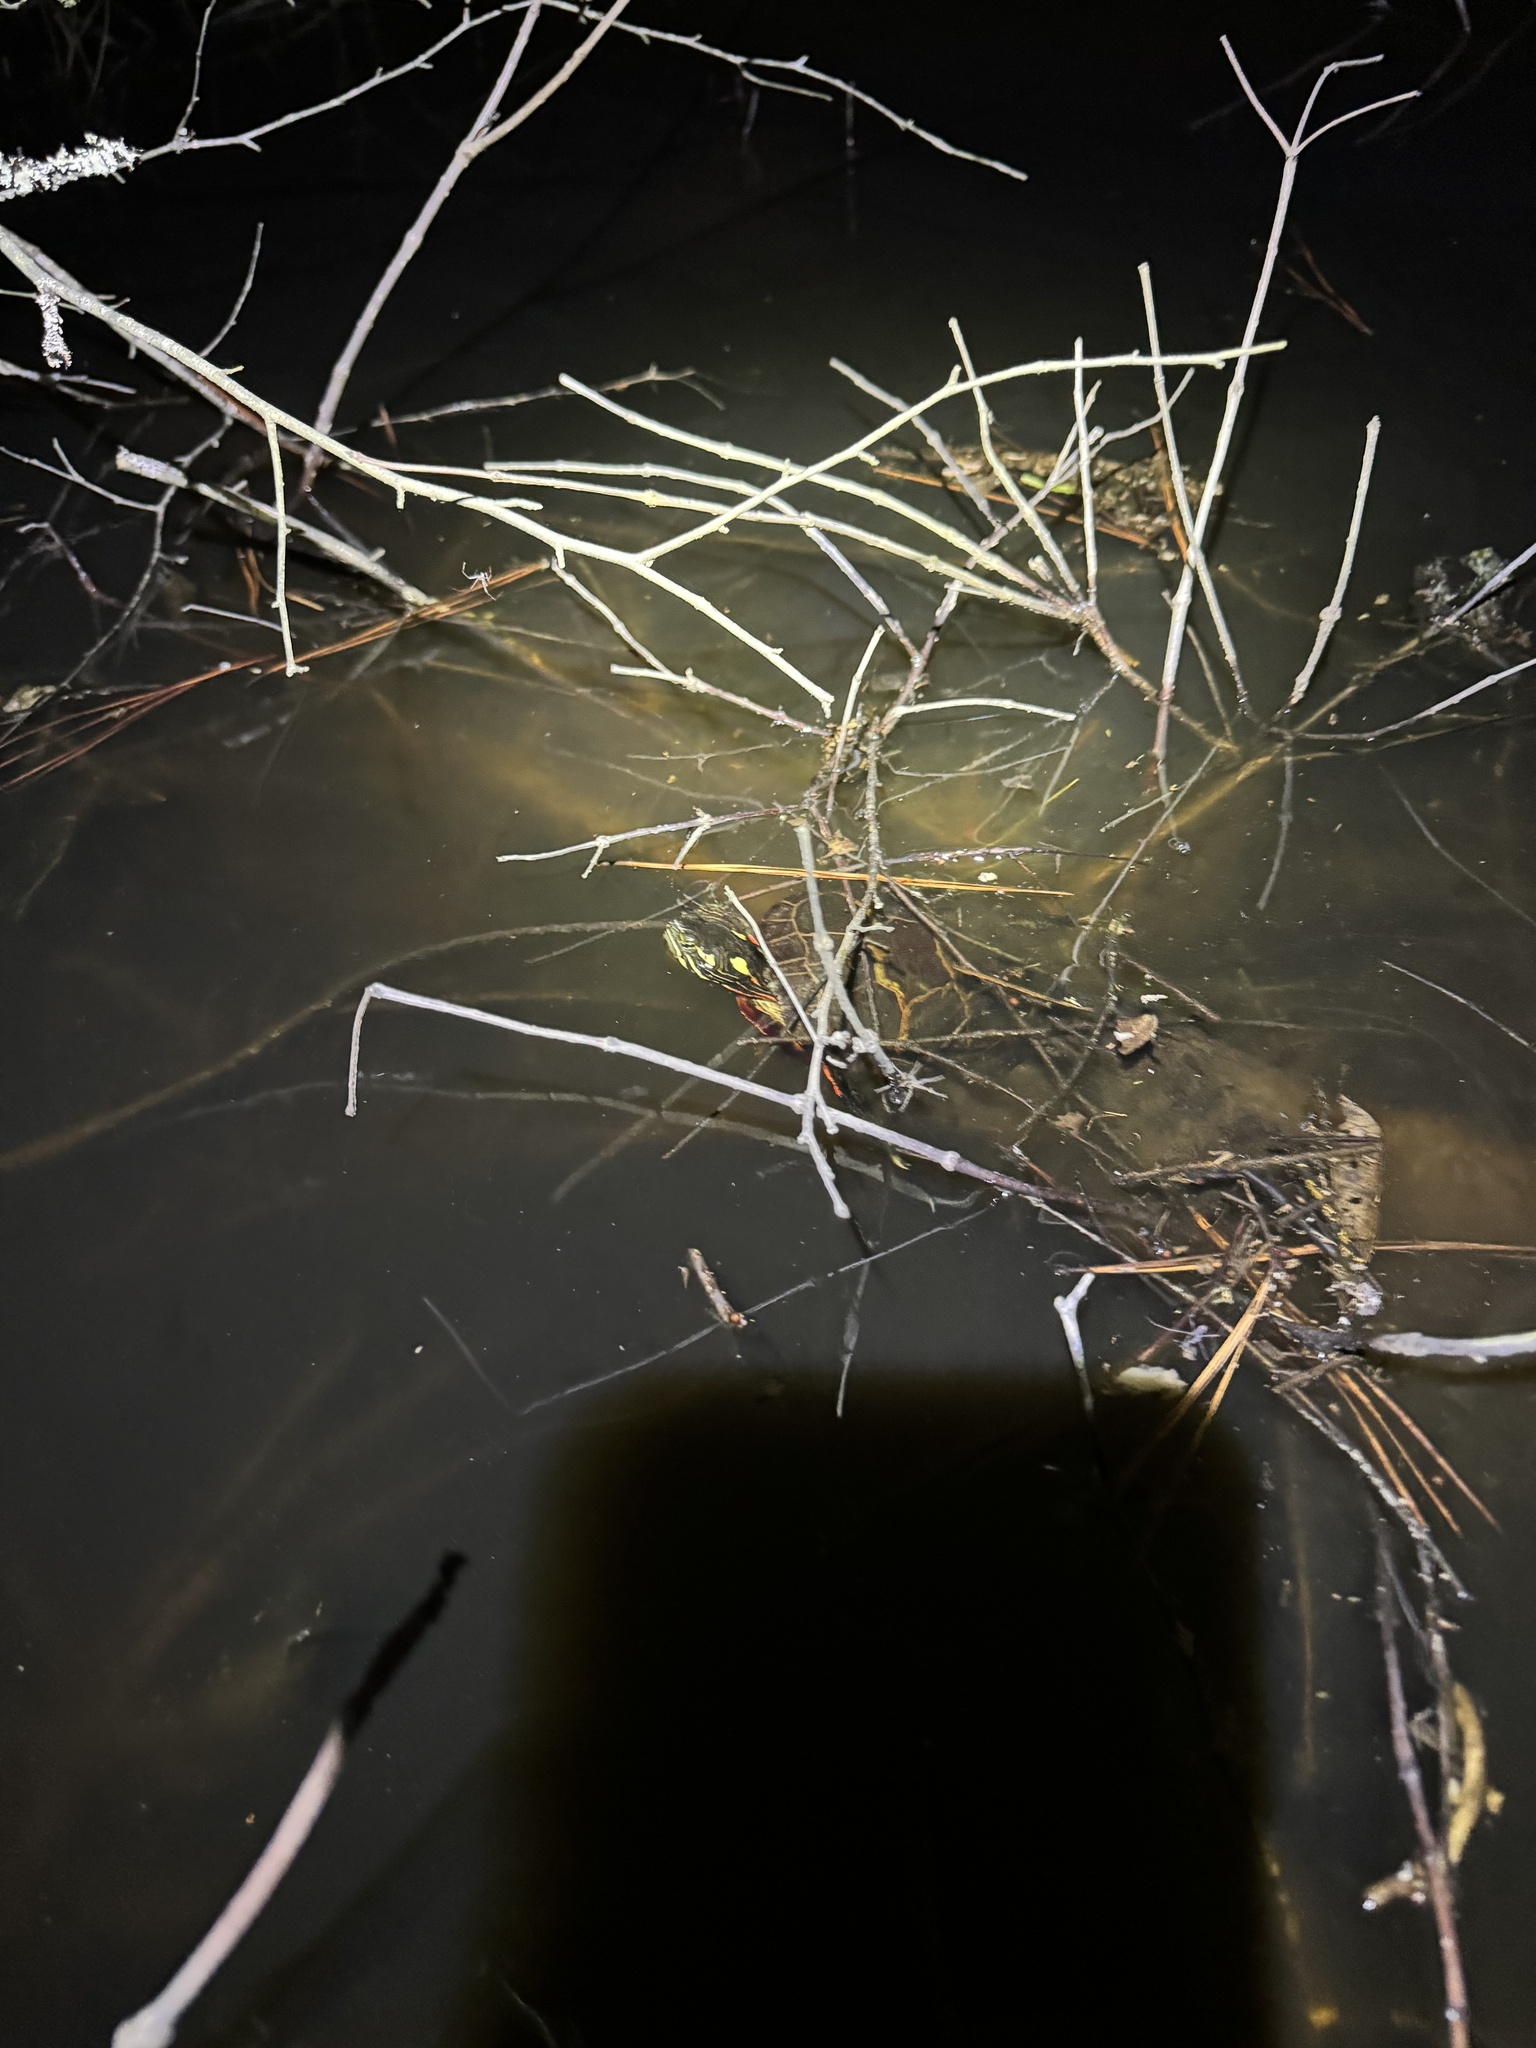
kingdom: Animalia
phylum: Chordata
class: Testudines
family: Emydidae
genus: Chrysemys
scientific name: Chrysemys picta
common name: Painted turtle
